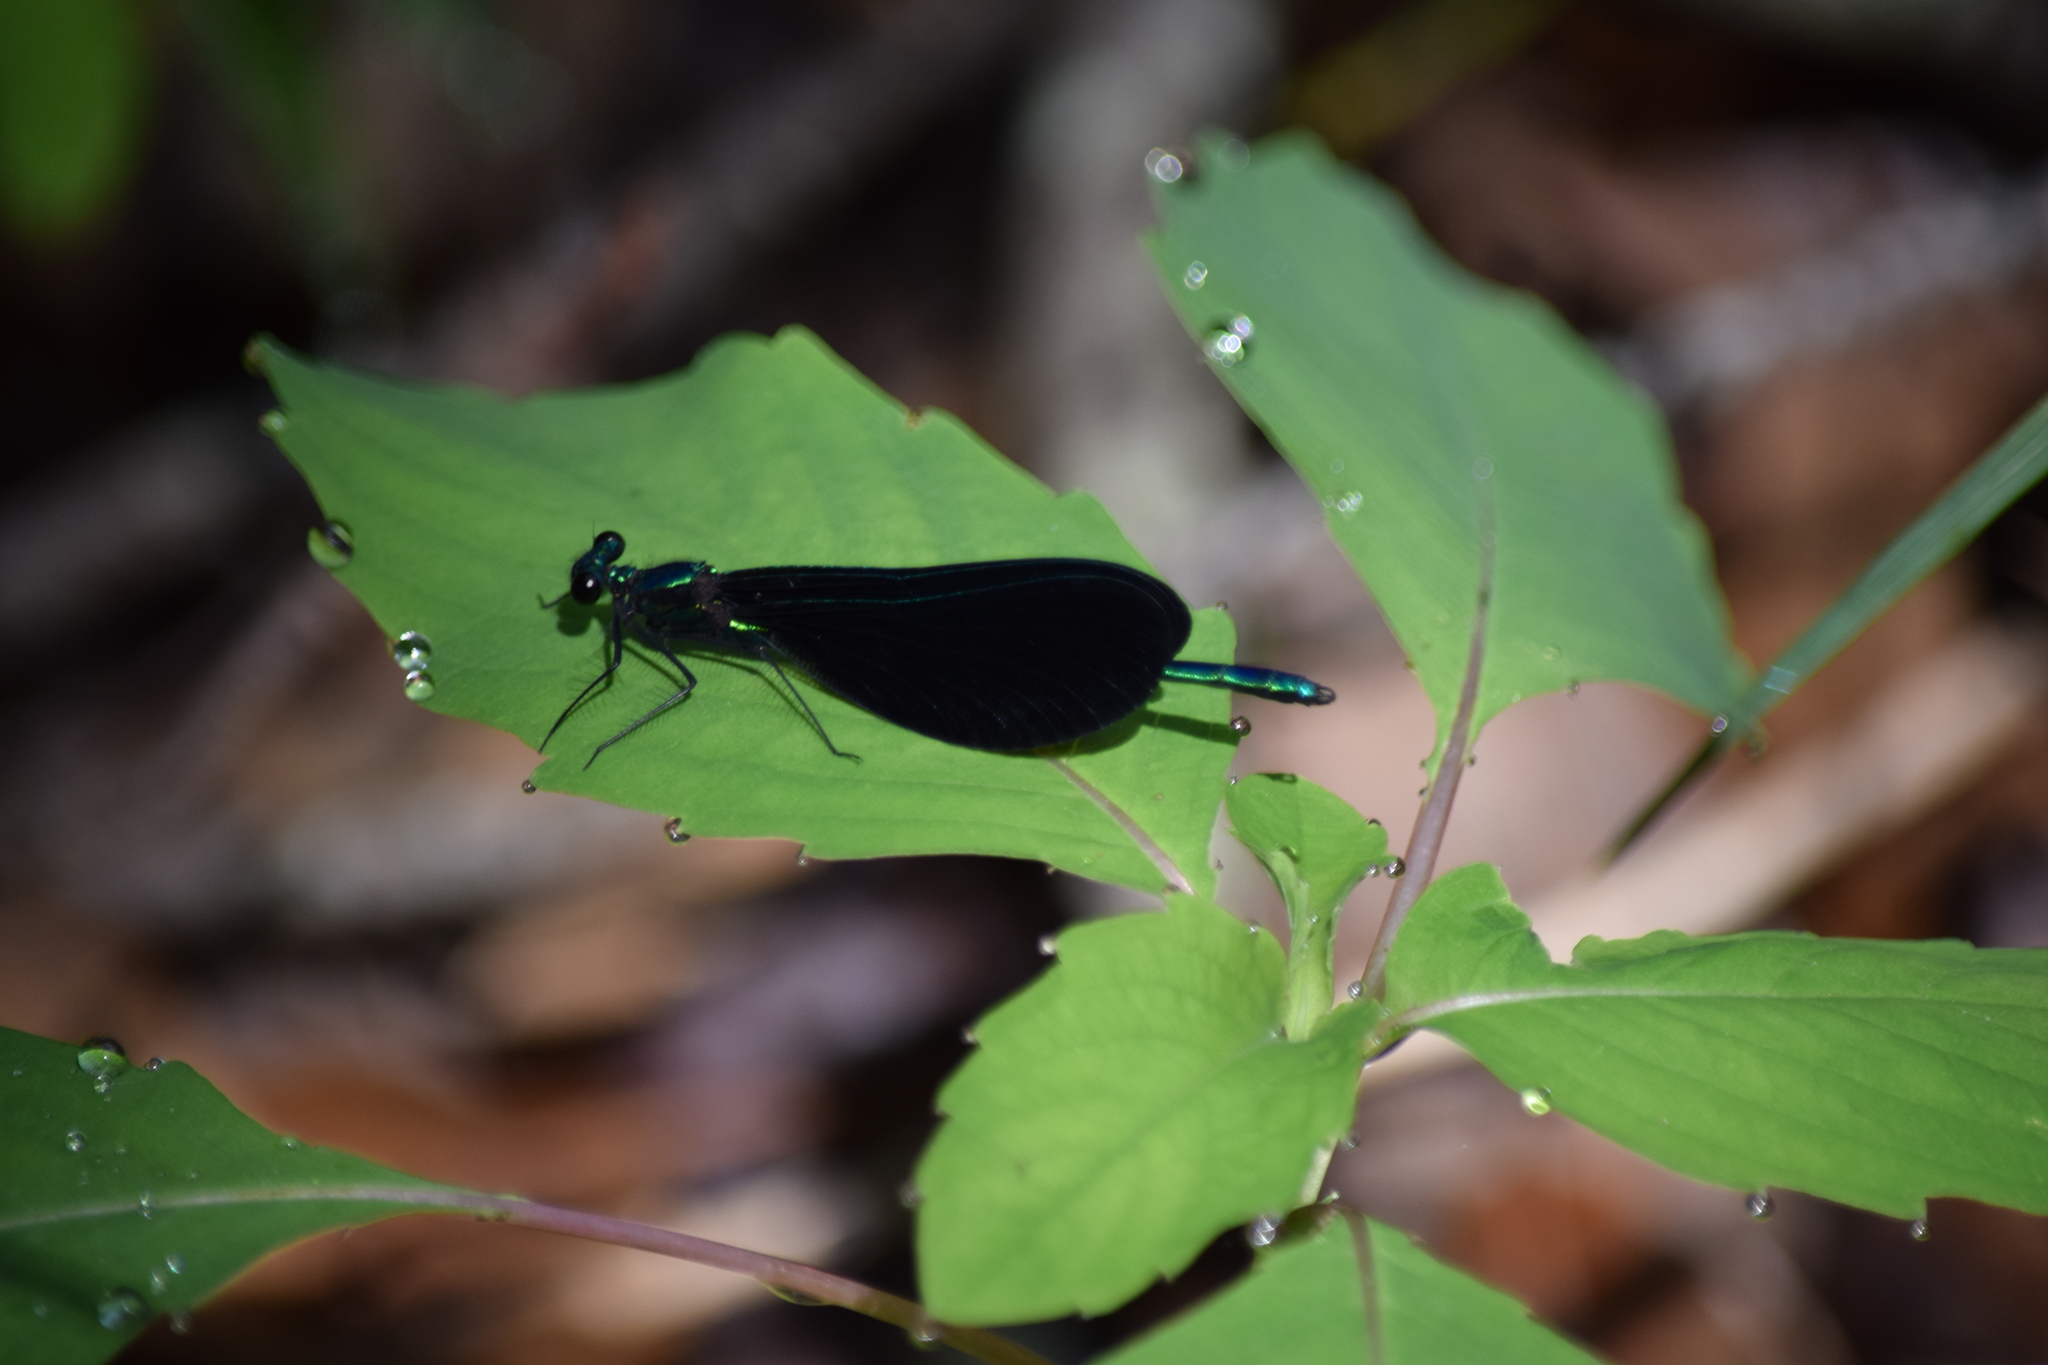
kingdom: Animalia
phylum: Arthropoda
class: Insecta
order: Odonata
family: Calopterygidae
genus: Calopteryx
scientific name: Calopteryx maculata
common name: Ebony jewelwing
